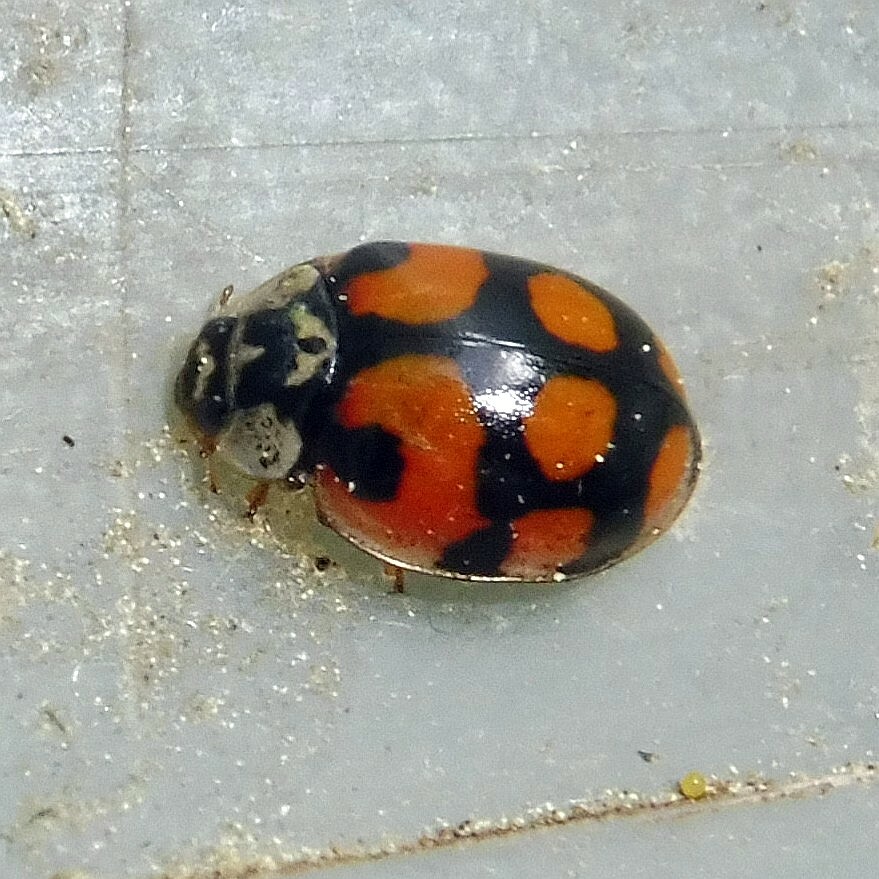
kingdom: Animalia
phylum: Arthropoda
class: Insecta
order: Coleoptera
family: Coccinellidae
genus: Adalia
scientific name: Adalia decempunctata
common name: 10-spot ladybird
